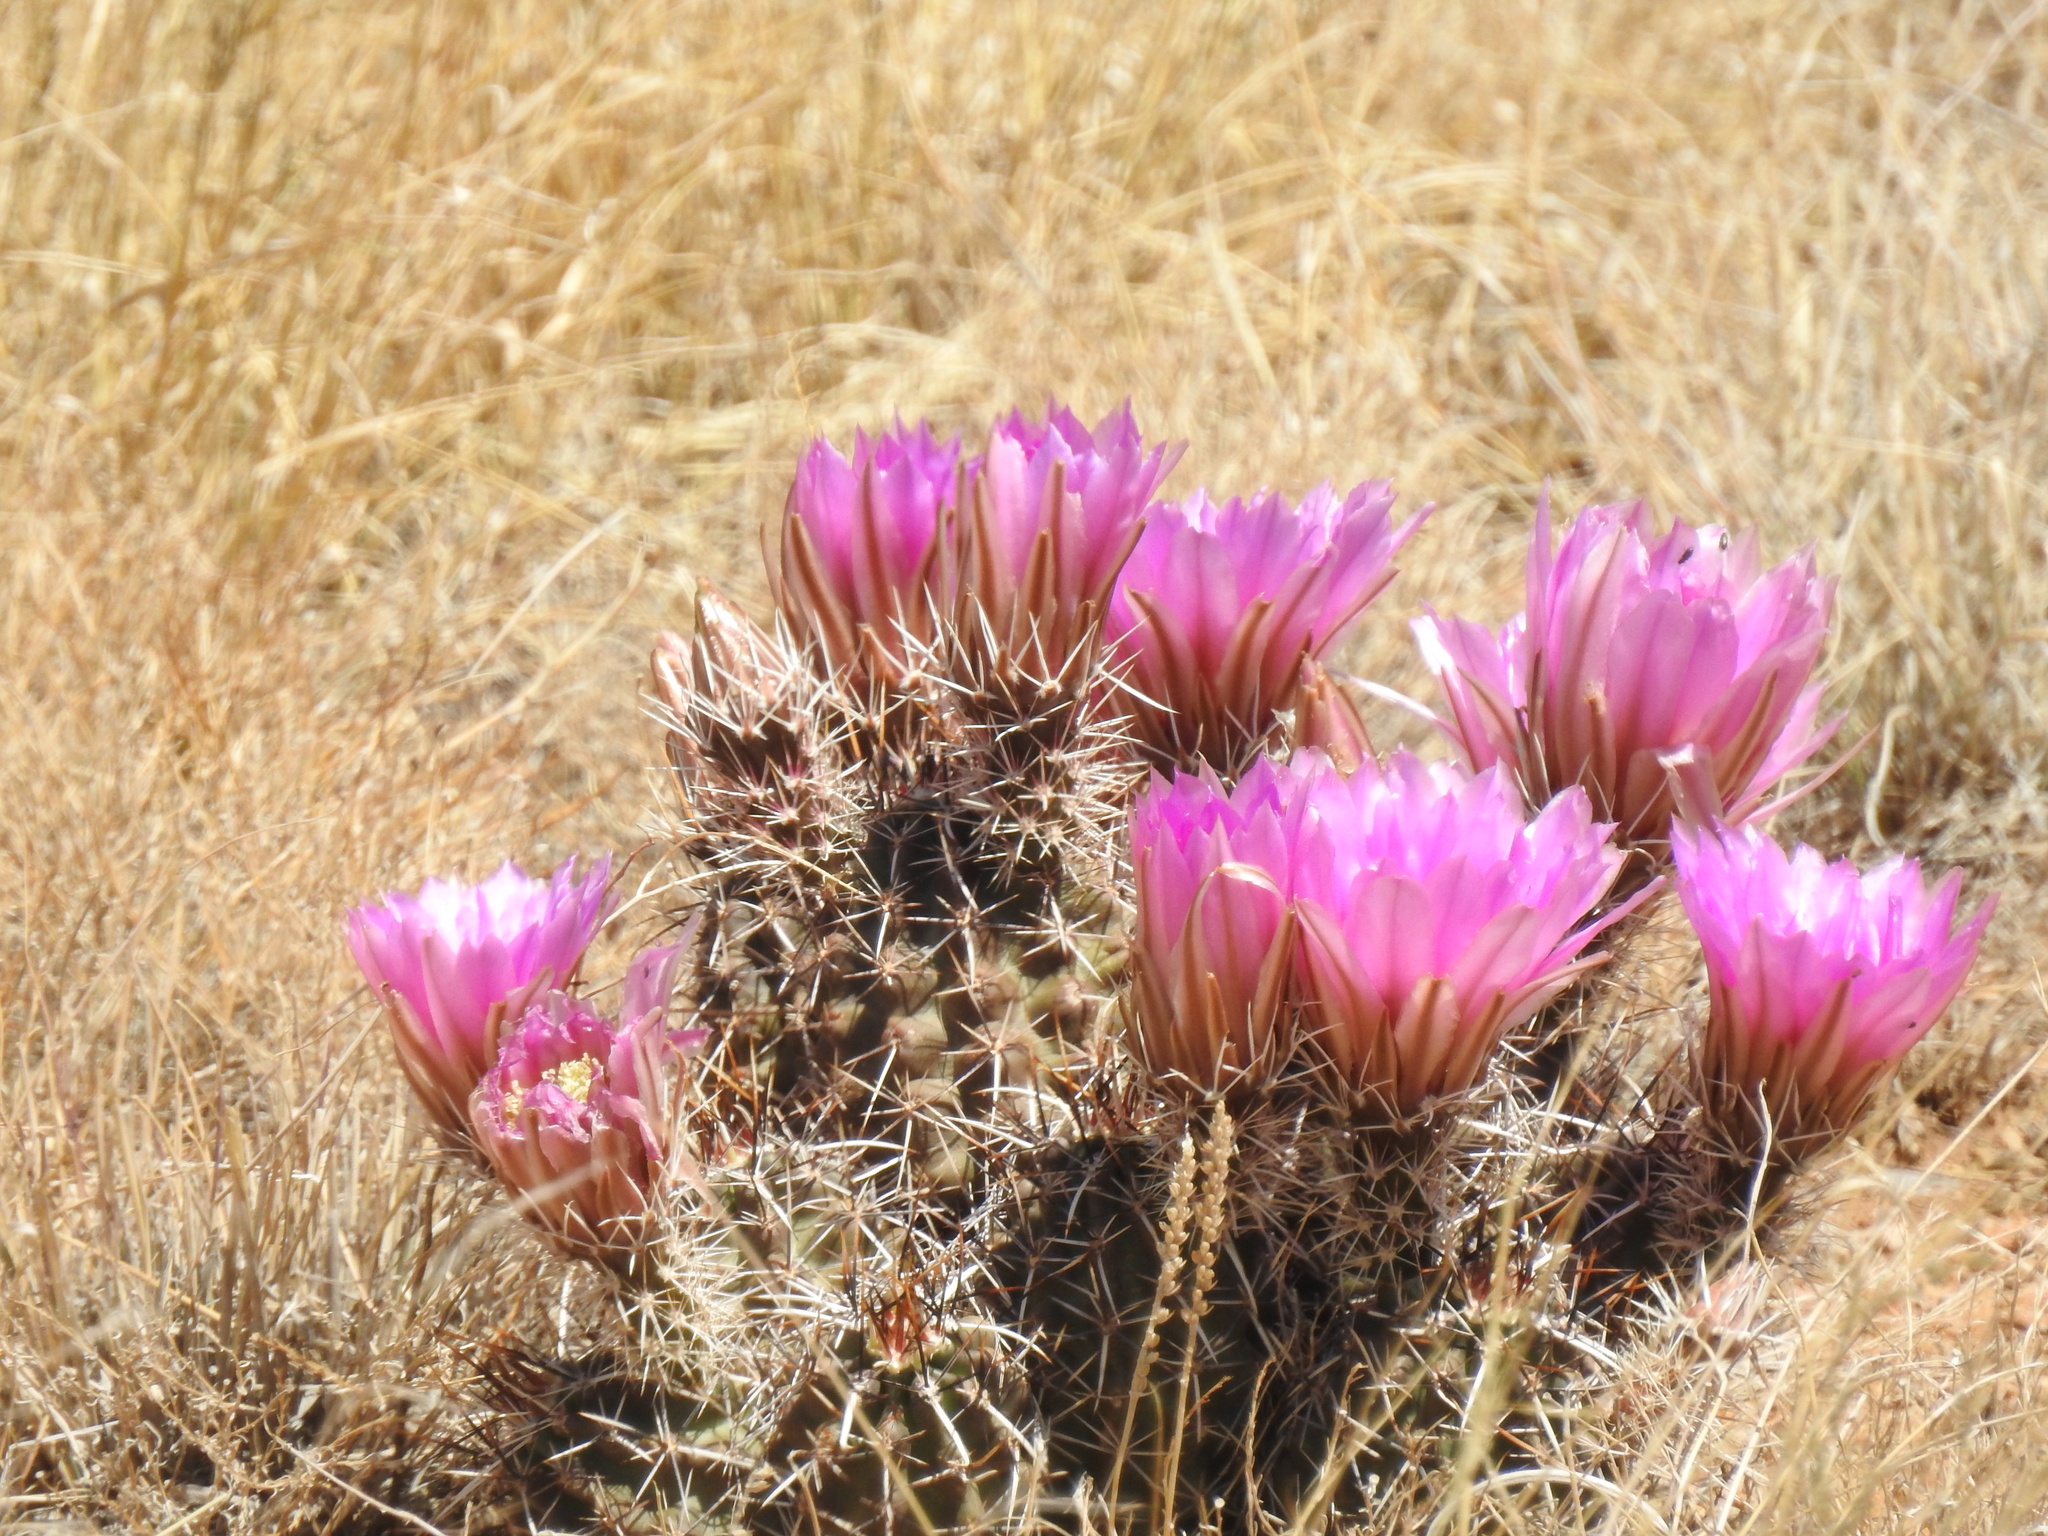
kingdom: Plantae
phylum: Tracheophyta
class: Magnoliopsida
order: Caryophyllales
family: Cactaceae
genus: Echinocereus
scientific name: Echinocereus fendleri
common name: Fendler's hedgehog cactus
